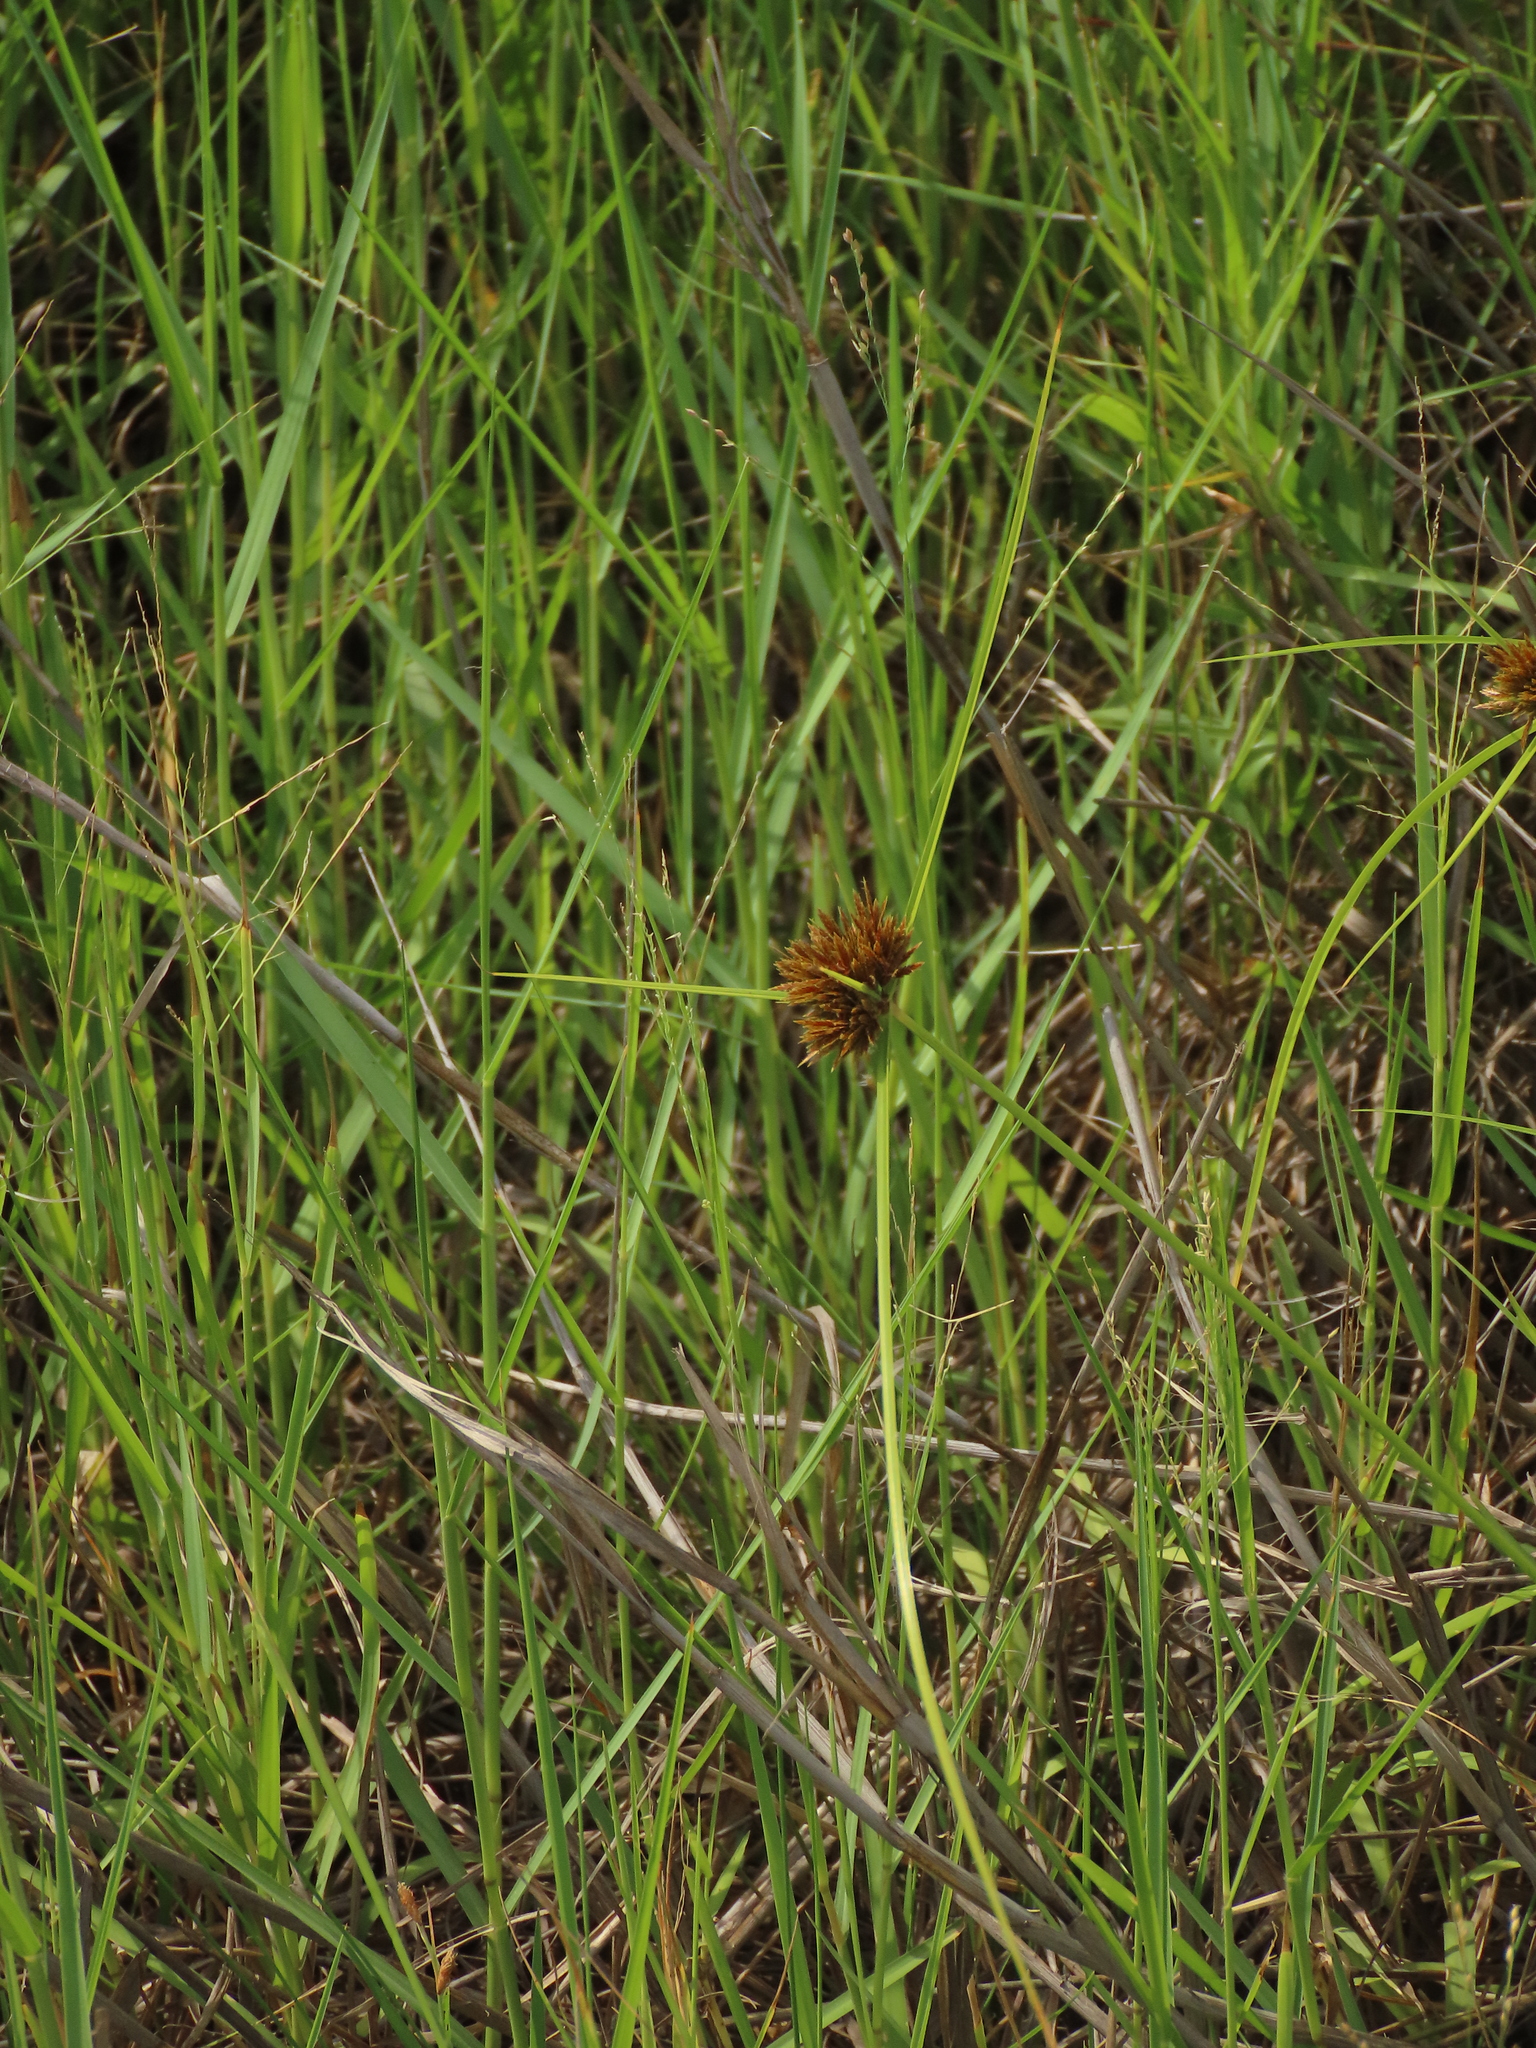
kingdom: Plantae
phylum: Tracheophyta
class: Liliopsida
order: Poales
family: Cyperaceae
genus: Cyperus
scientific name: Cyperus polystachyos
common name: Bunchy flat sedge
